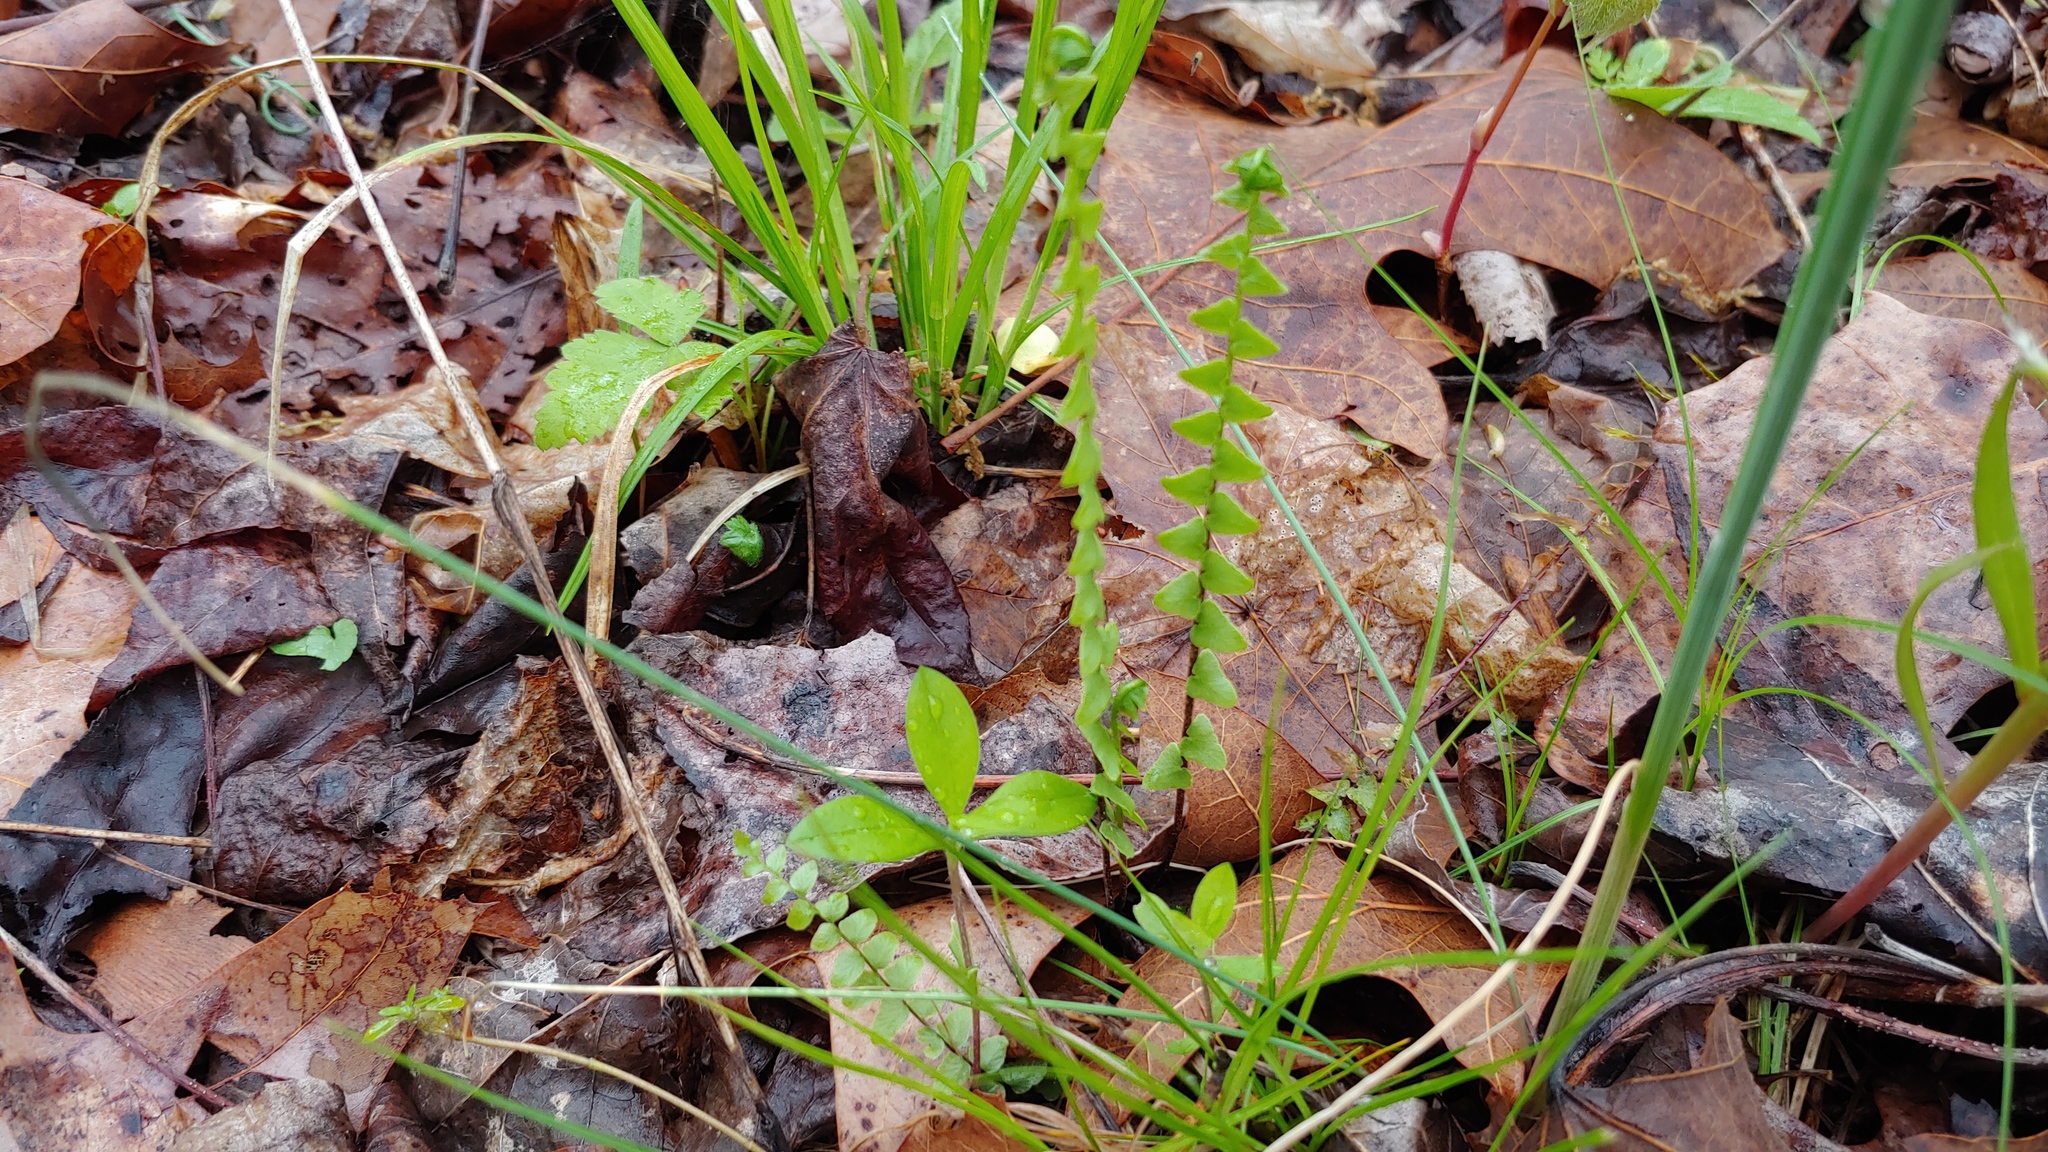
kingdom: Plantae
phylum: Tracheophyta
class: Polypodiopsida
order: Polypodiales
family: Aspleniaceae
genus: Asplenium
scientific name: Asplenium platyneuron
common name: Ebony spleenwort
